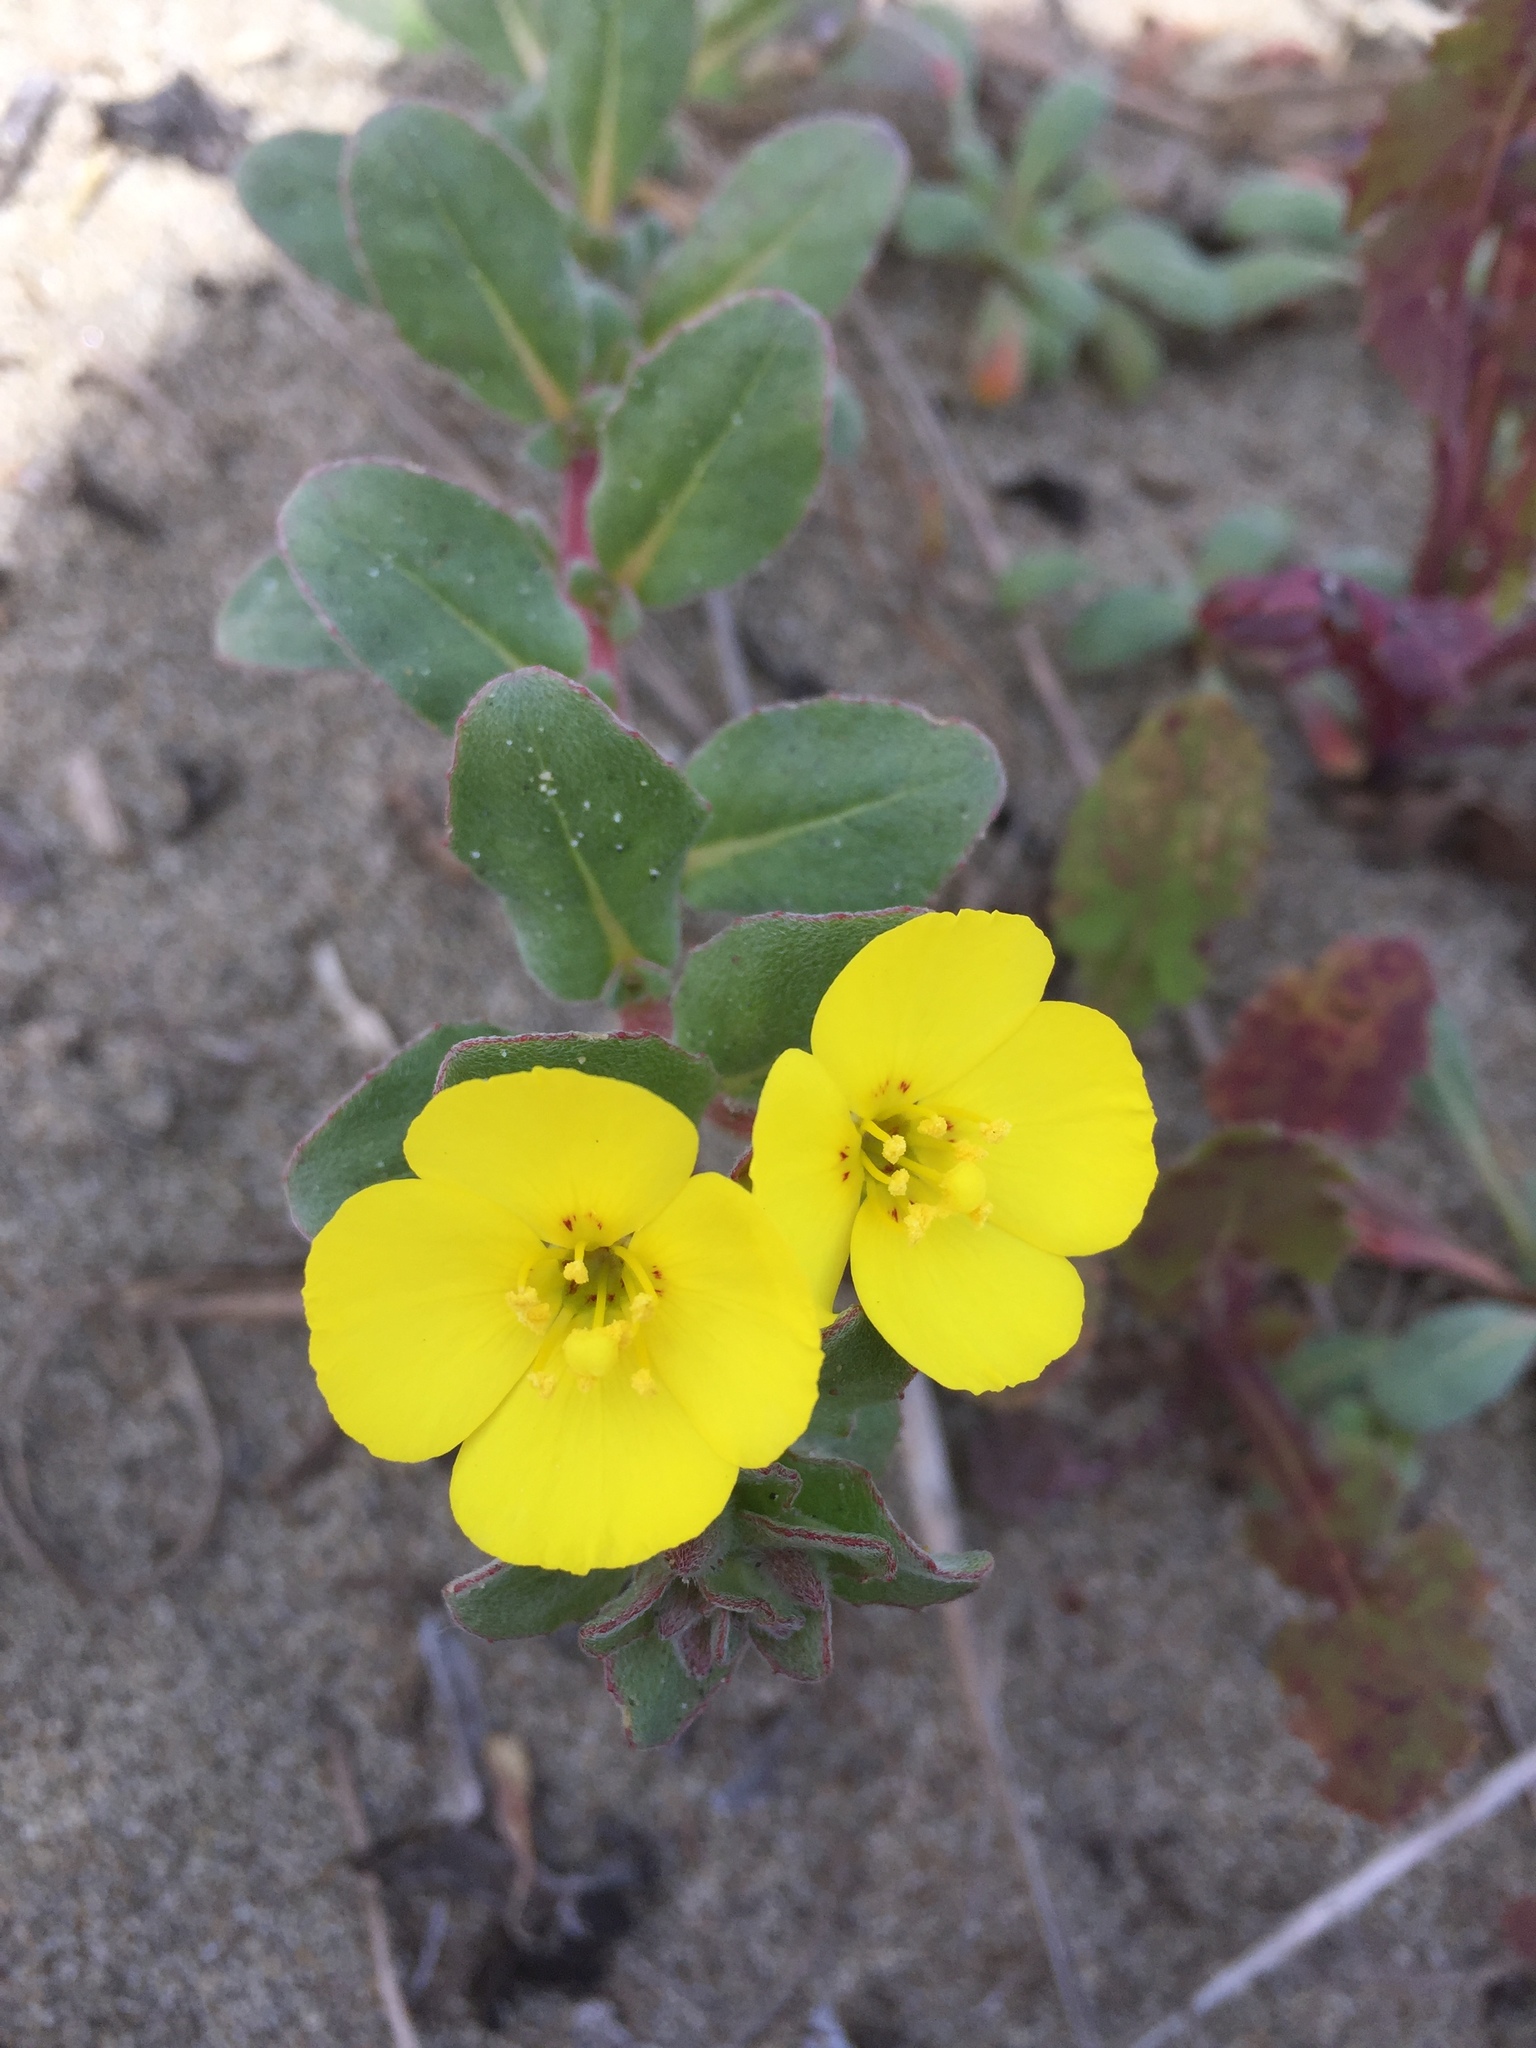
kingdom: Plantae
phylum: Tracheophyta
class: Magnoliopsida
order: Myrtales
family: Onagraceae
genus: Camissoniopsis
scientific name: Camissoniopsis cheiranthifolia
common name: Beach suncup
